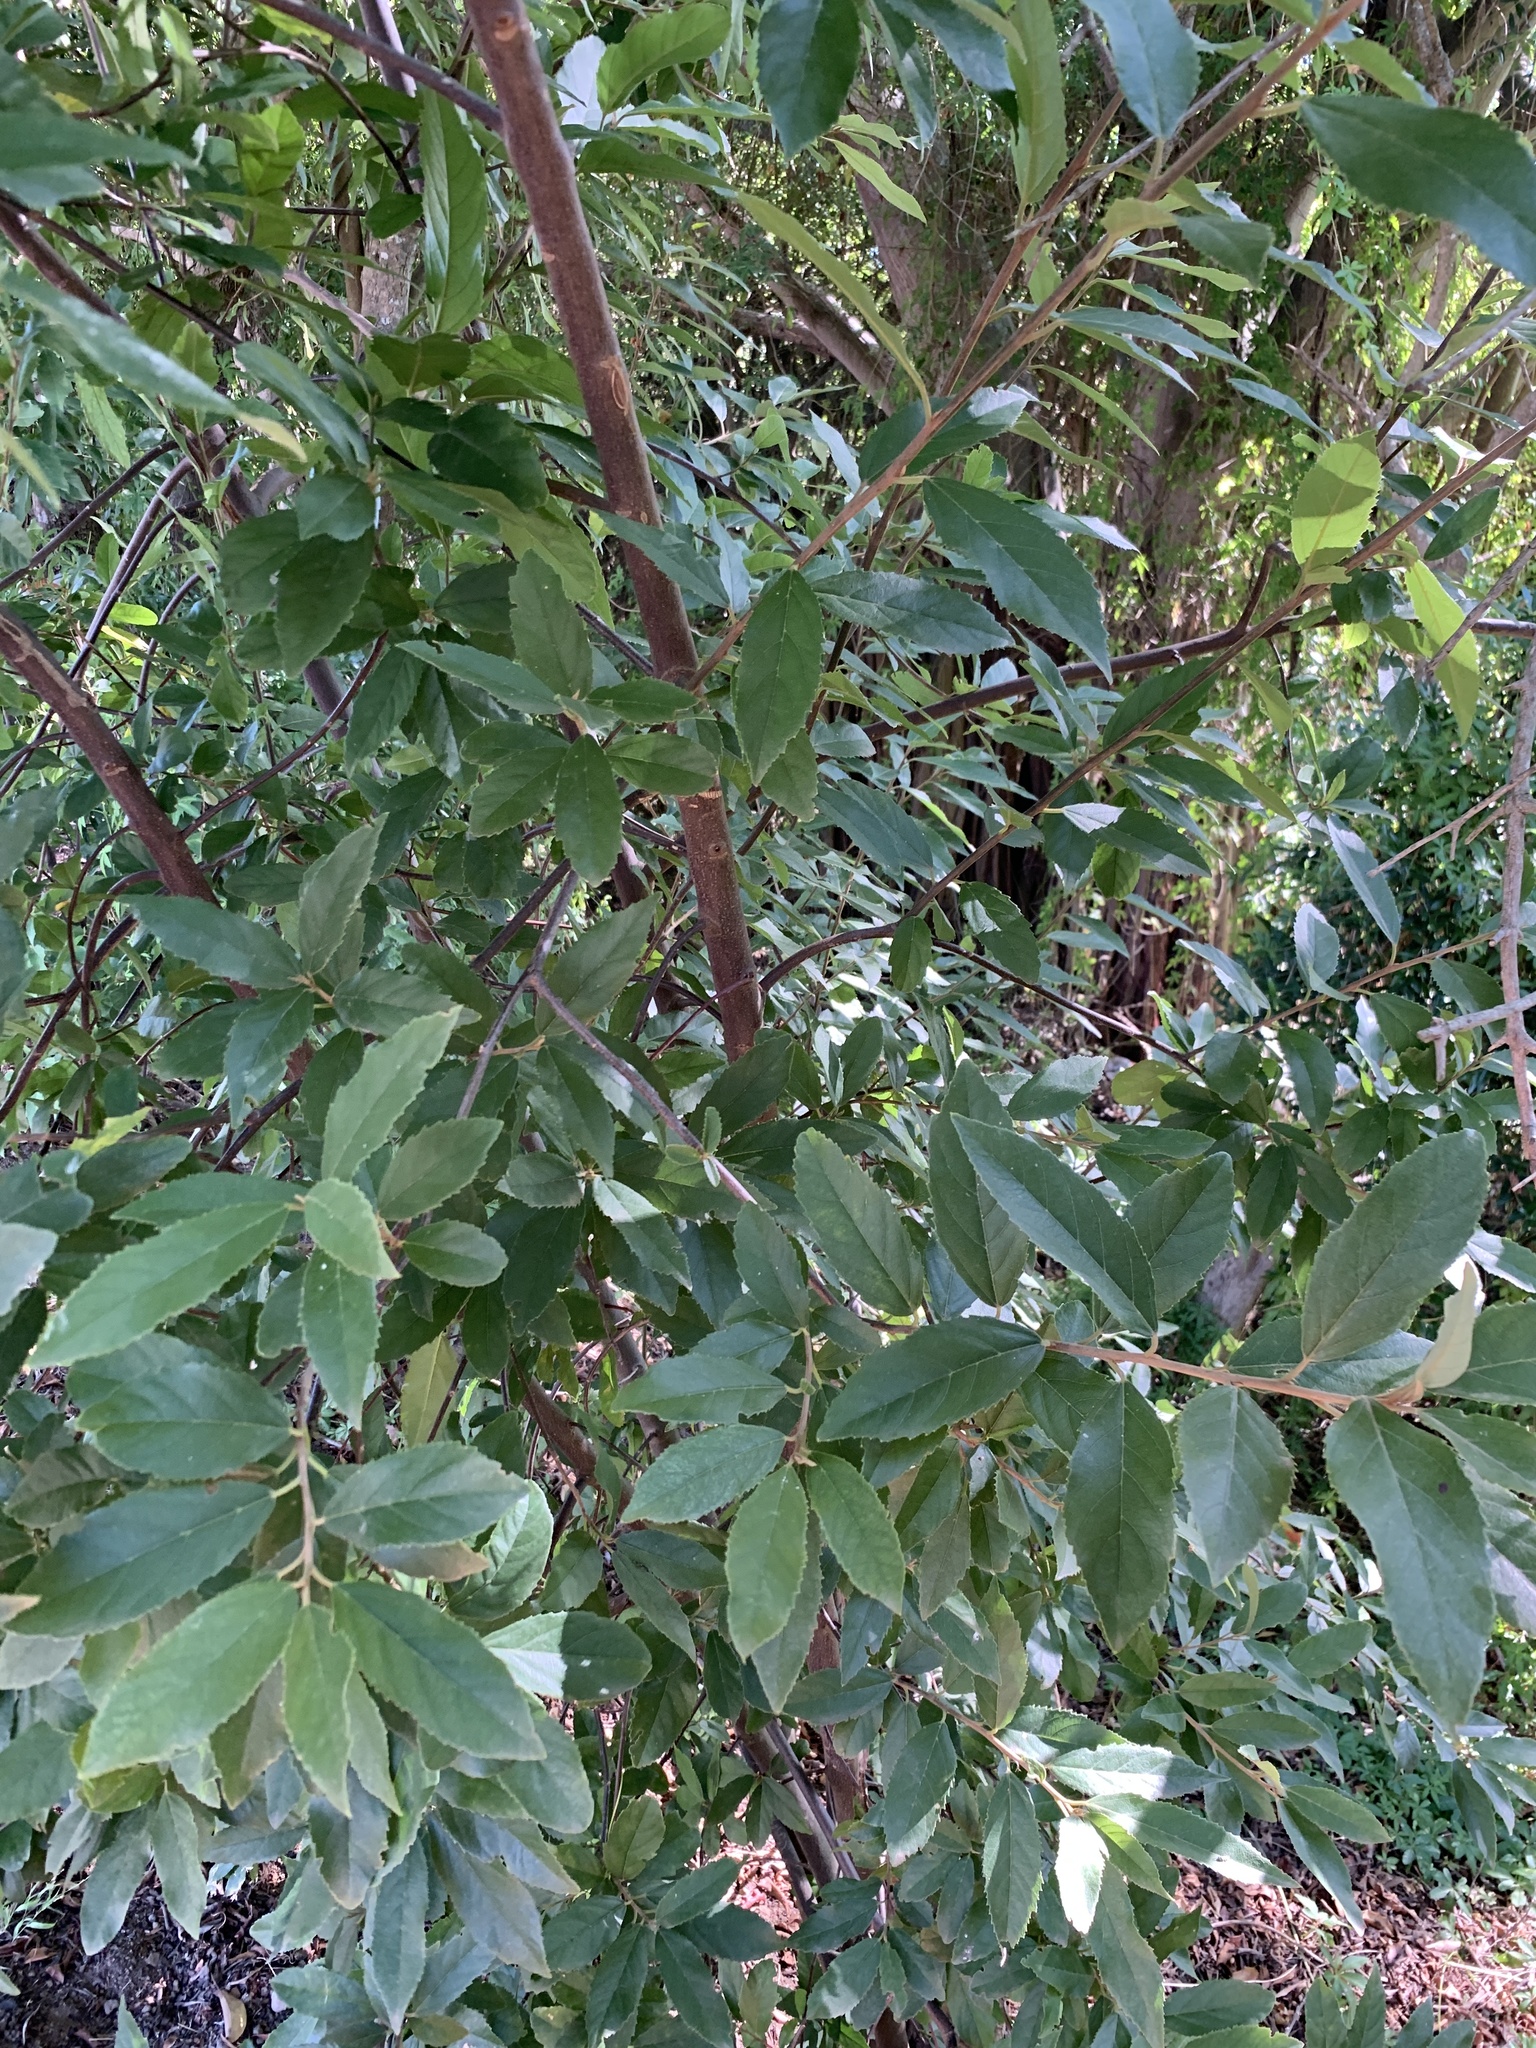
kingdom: Plantae
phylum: Tracheophyta
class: Magnoliopsida
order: Malpighiales
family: Achariaceae
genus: Kiggelaria
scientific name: Kiggelaria africana
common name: Wild peach
